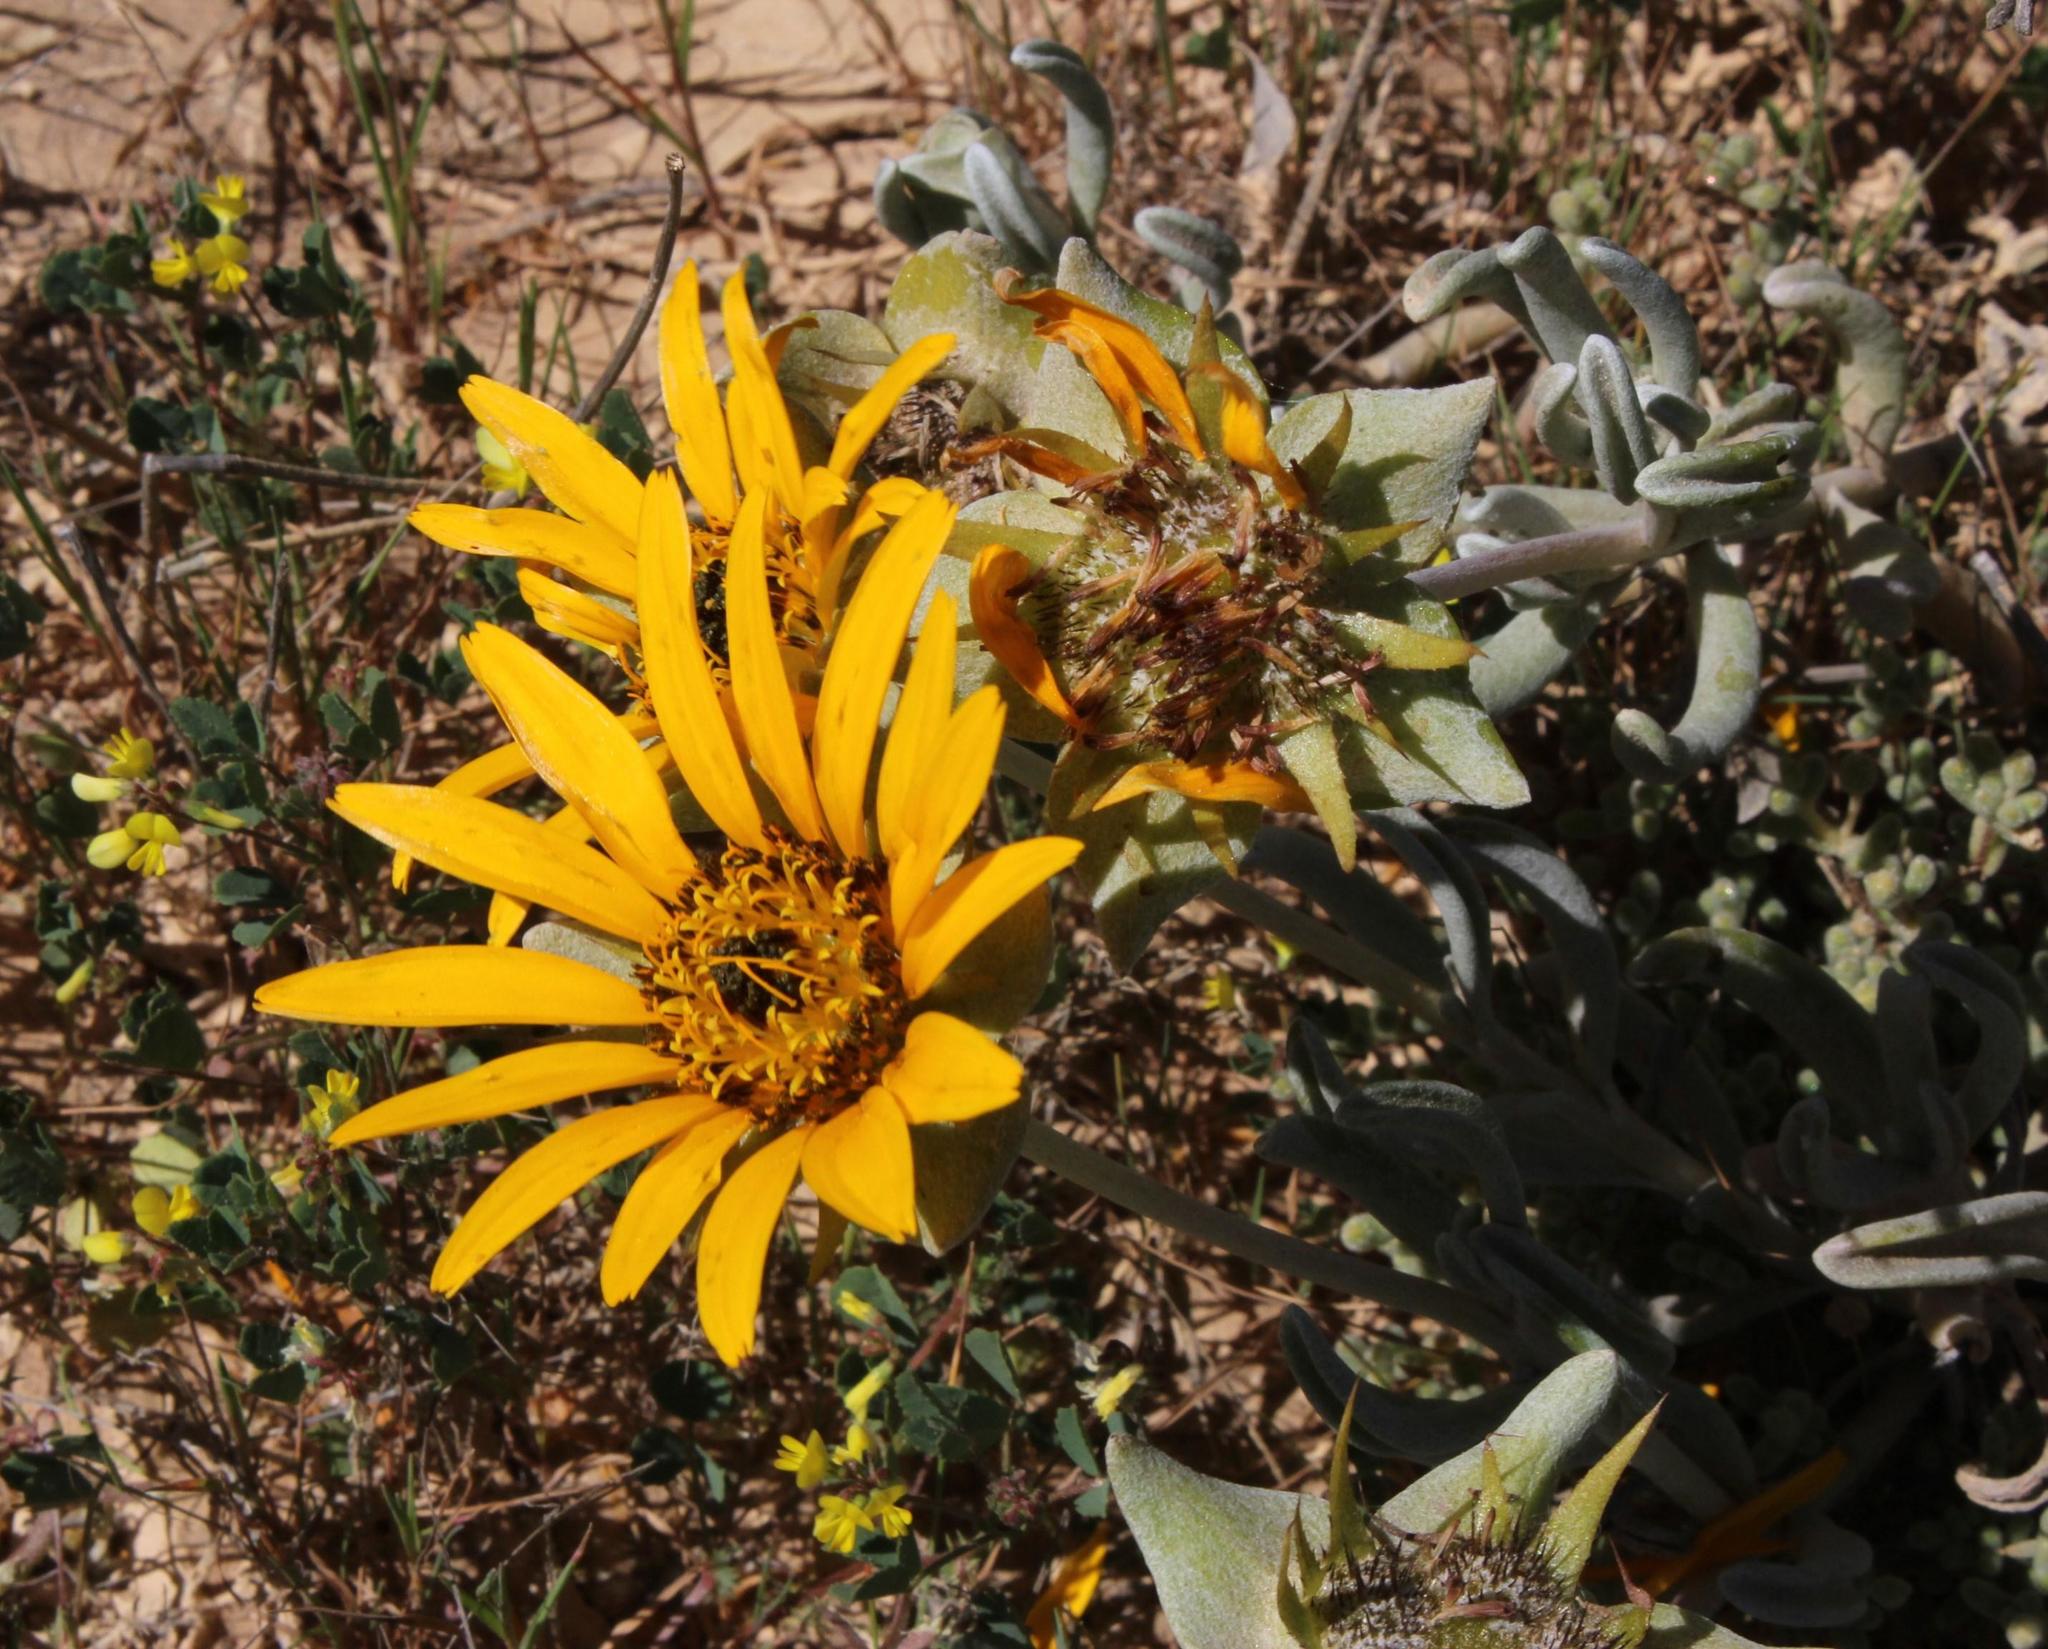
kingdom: Plantae
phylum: Tracheophyta
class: Magnoliopsida
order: Asterales
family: Asteraceae
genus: Didelta
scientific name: Didelta carnosa
